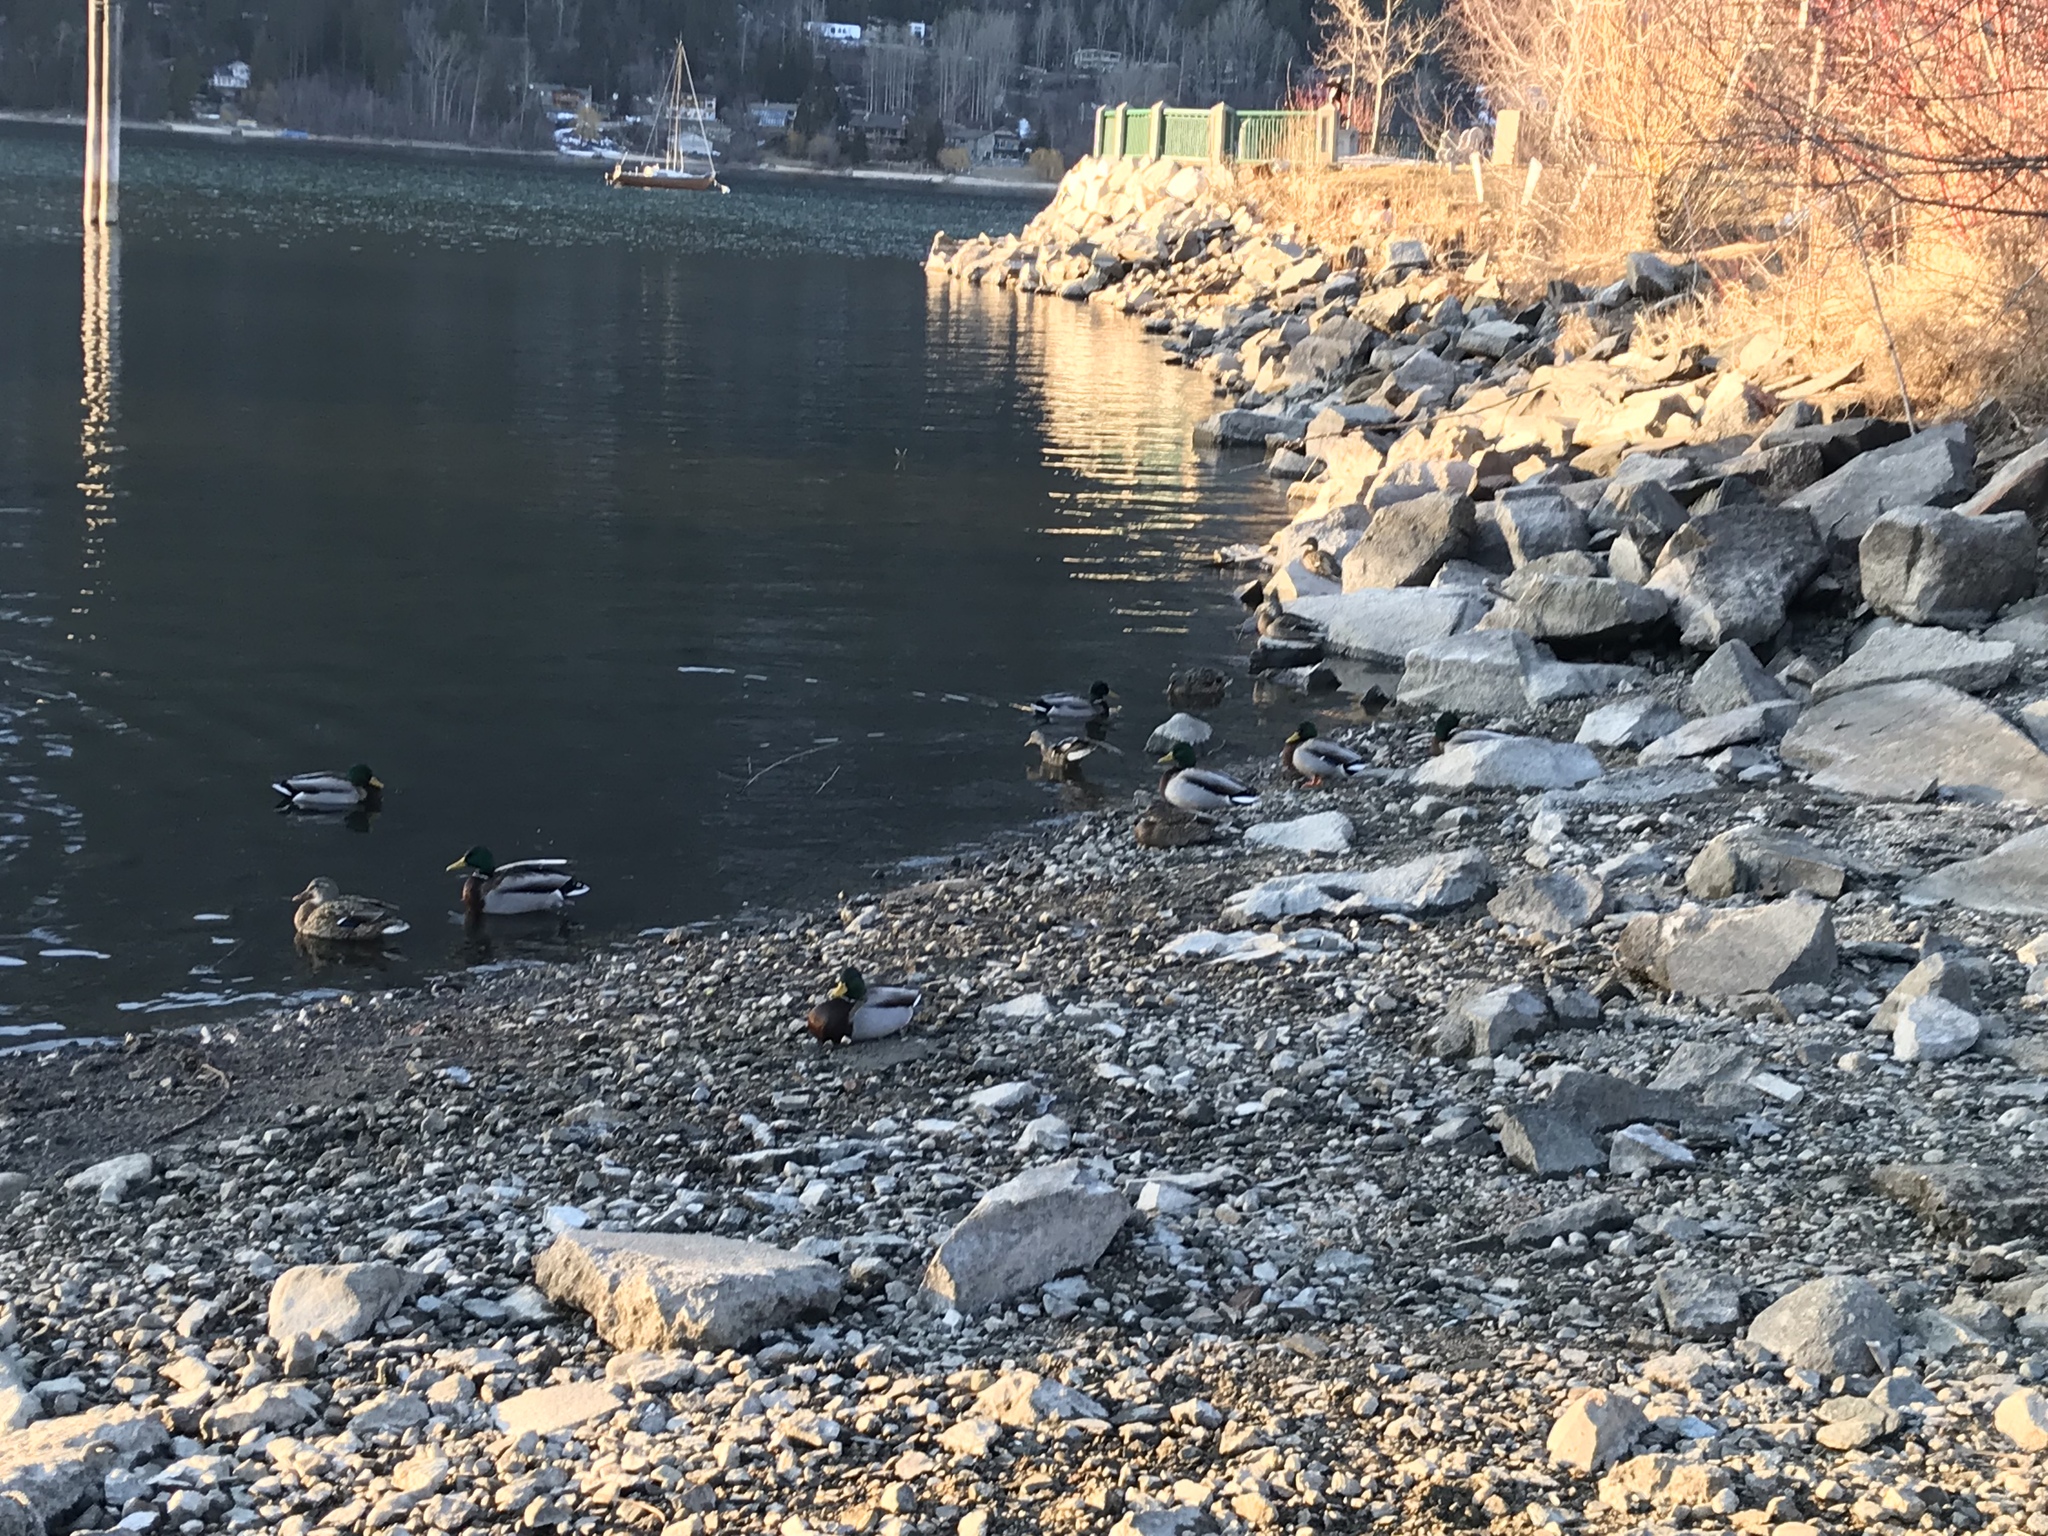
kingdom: Animalia
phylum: Chordata
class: Aves
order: Anseriformes
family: Anatidae
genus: Anas
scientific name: Anas platyrhynchos
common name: Mallard
